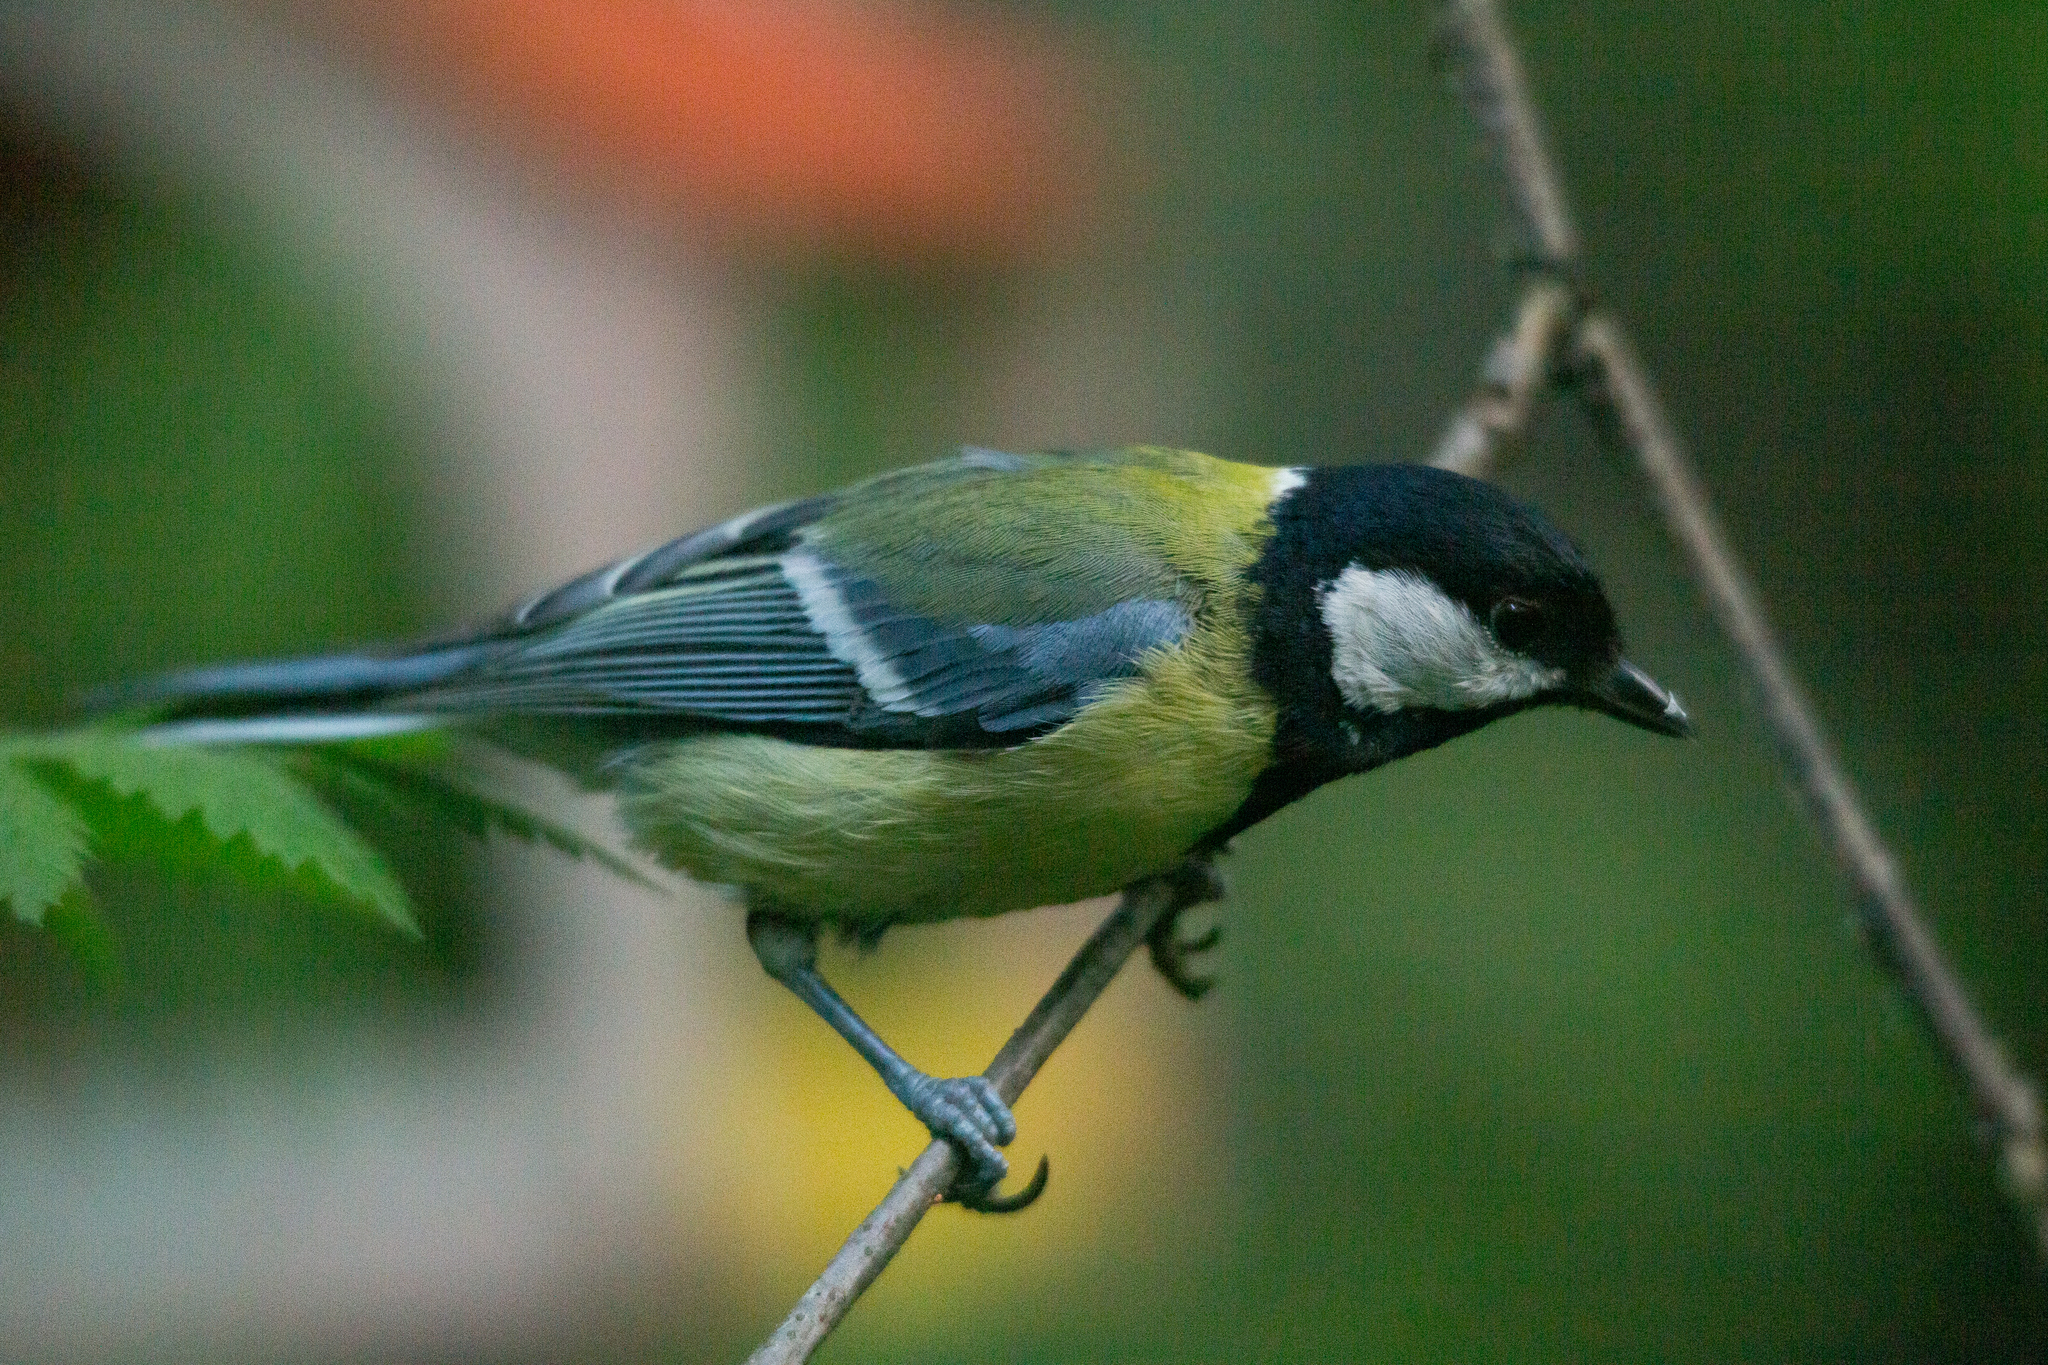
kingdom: Animalia
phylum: Chordata
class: Aves
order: Passeriformes
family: Paridae
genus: Parus
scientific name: Parus major
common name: Great tit
